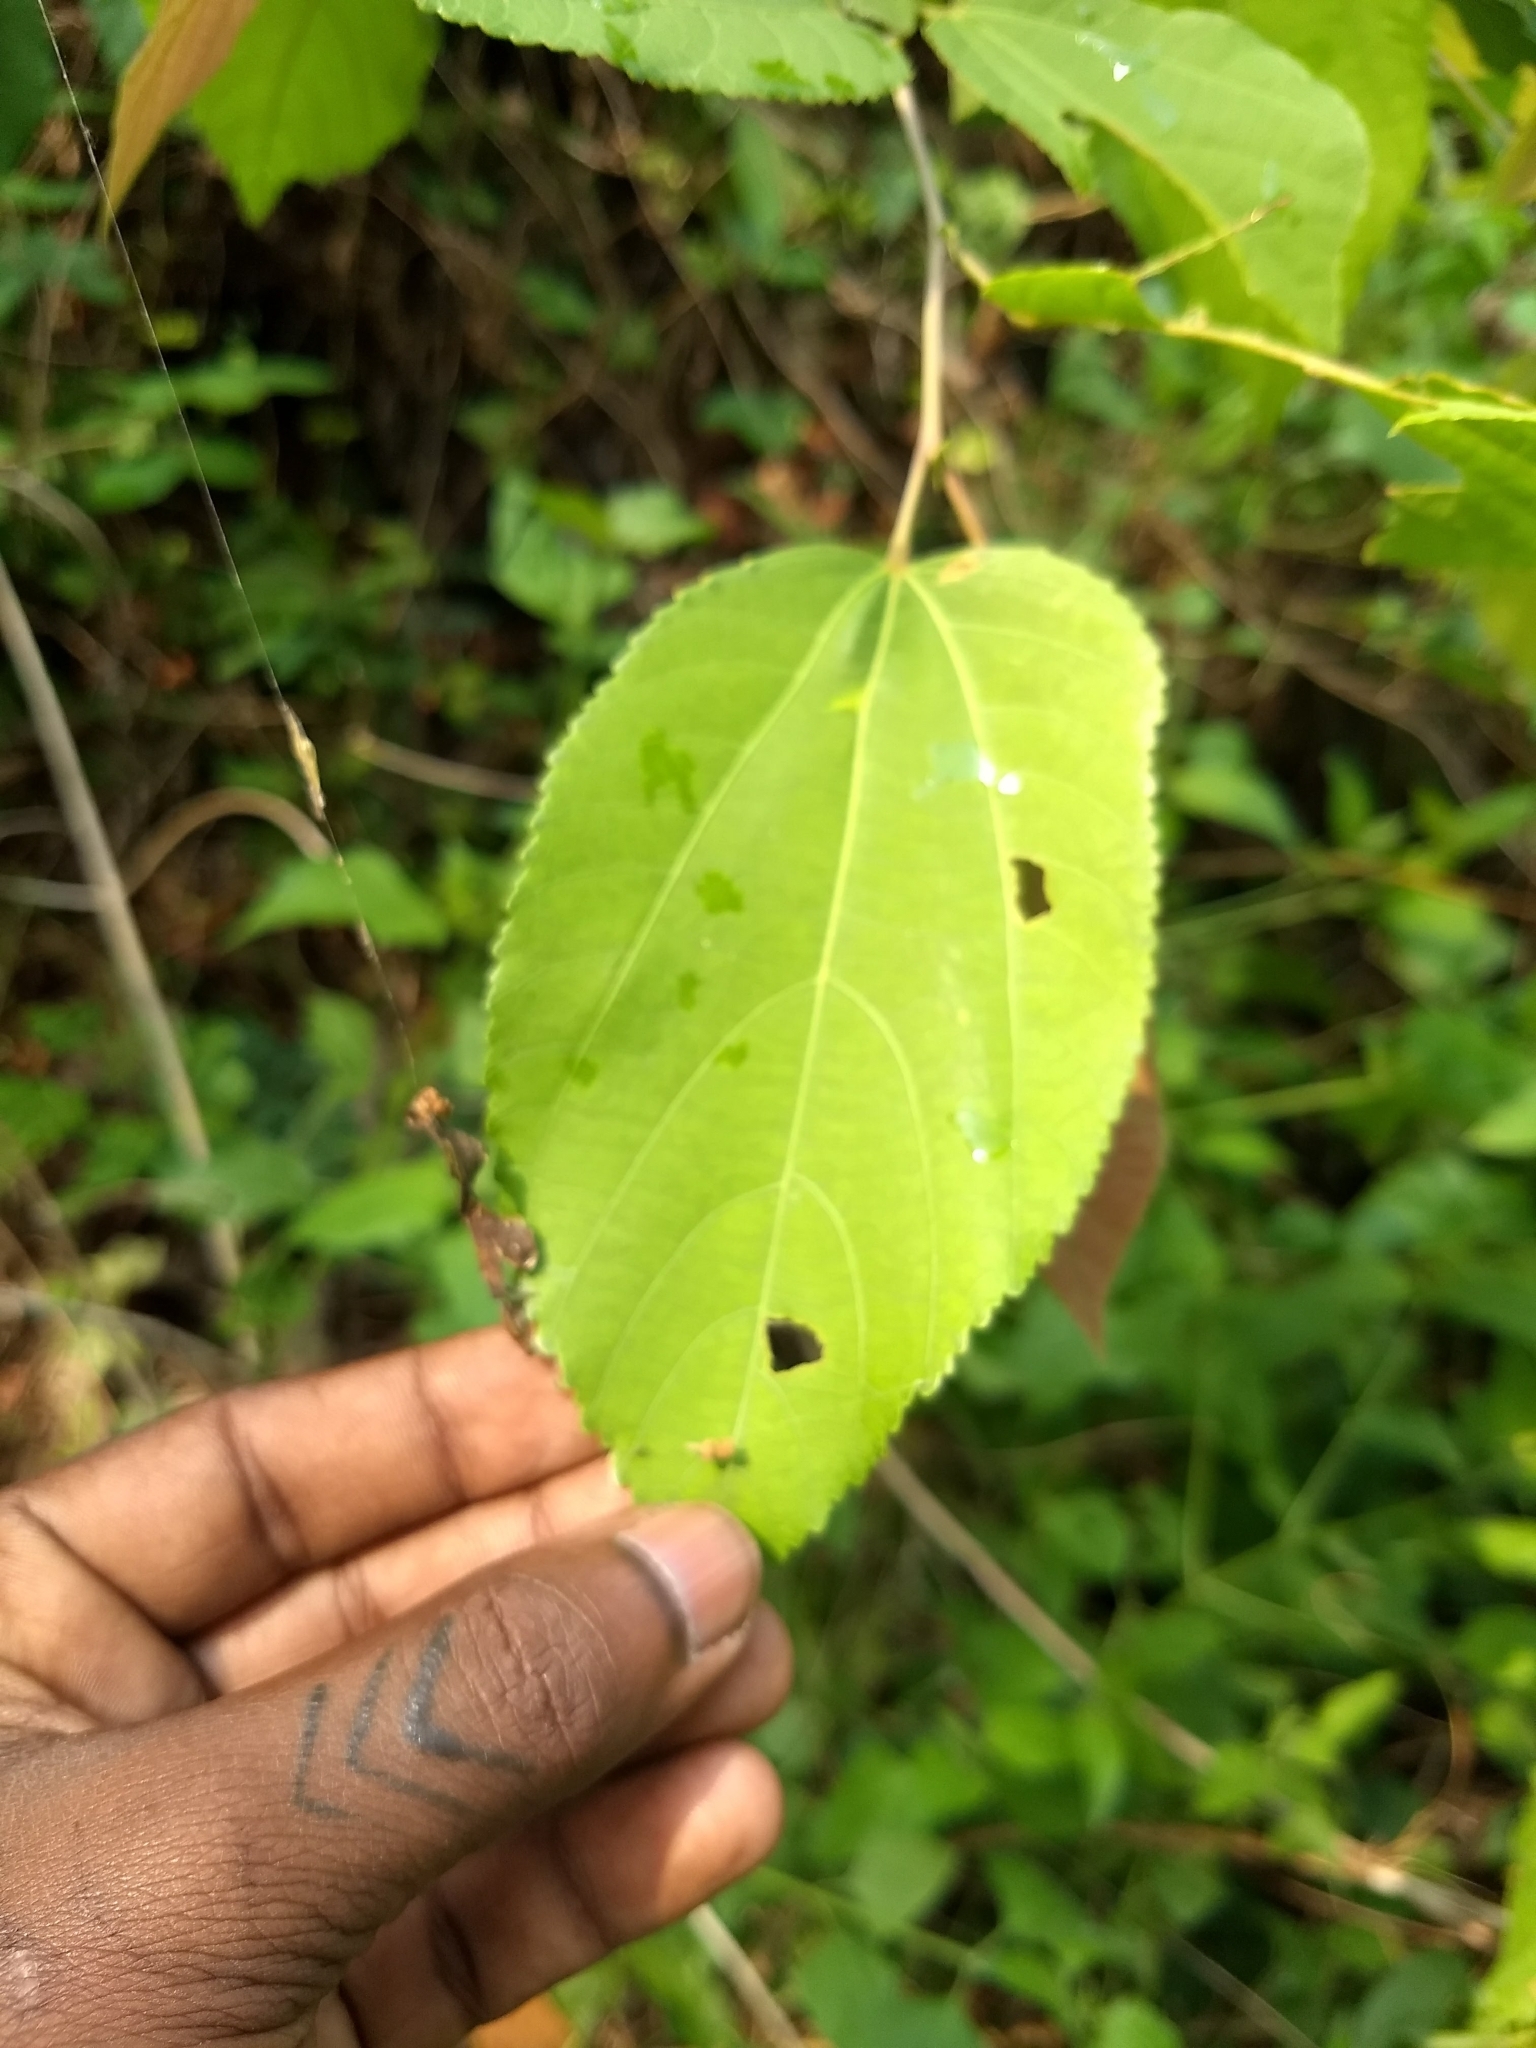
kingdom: Plantae
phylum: Tracheophyta
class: Magnoliopsida
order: Malvales
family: Malvaceae
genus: Helicteres
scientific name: Helicteres isora
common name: East indian screwtree
